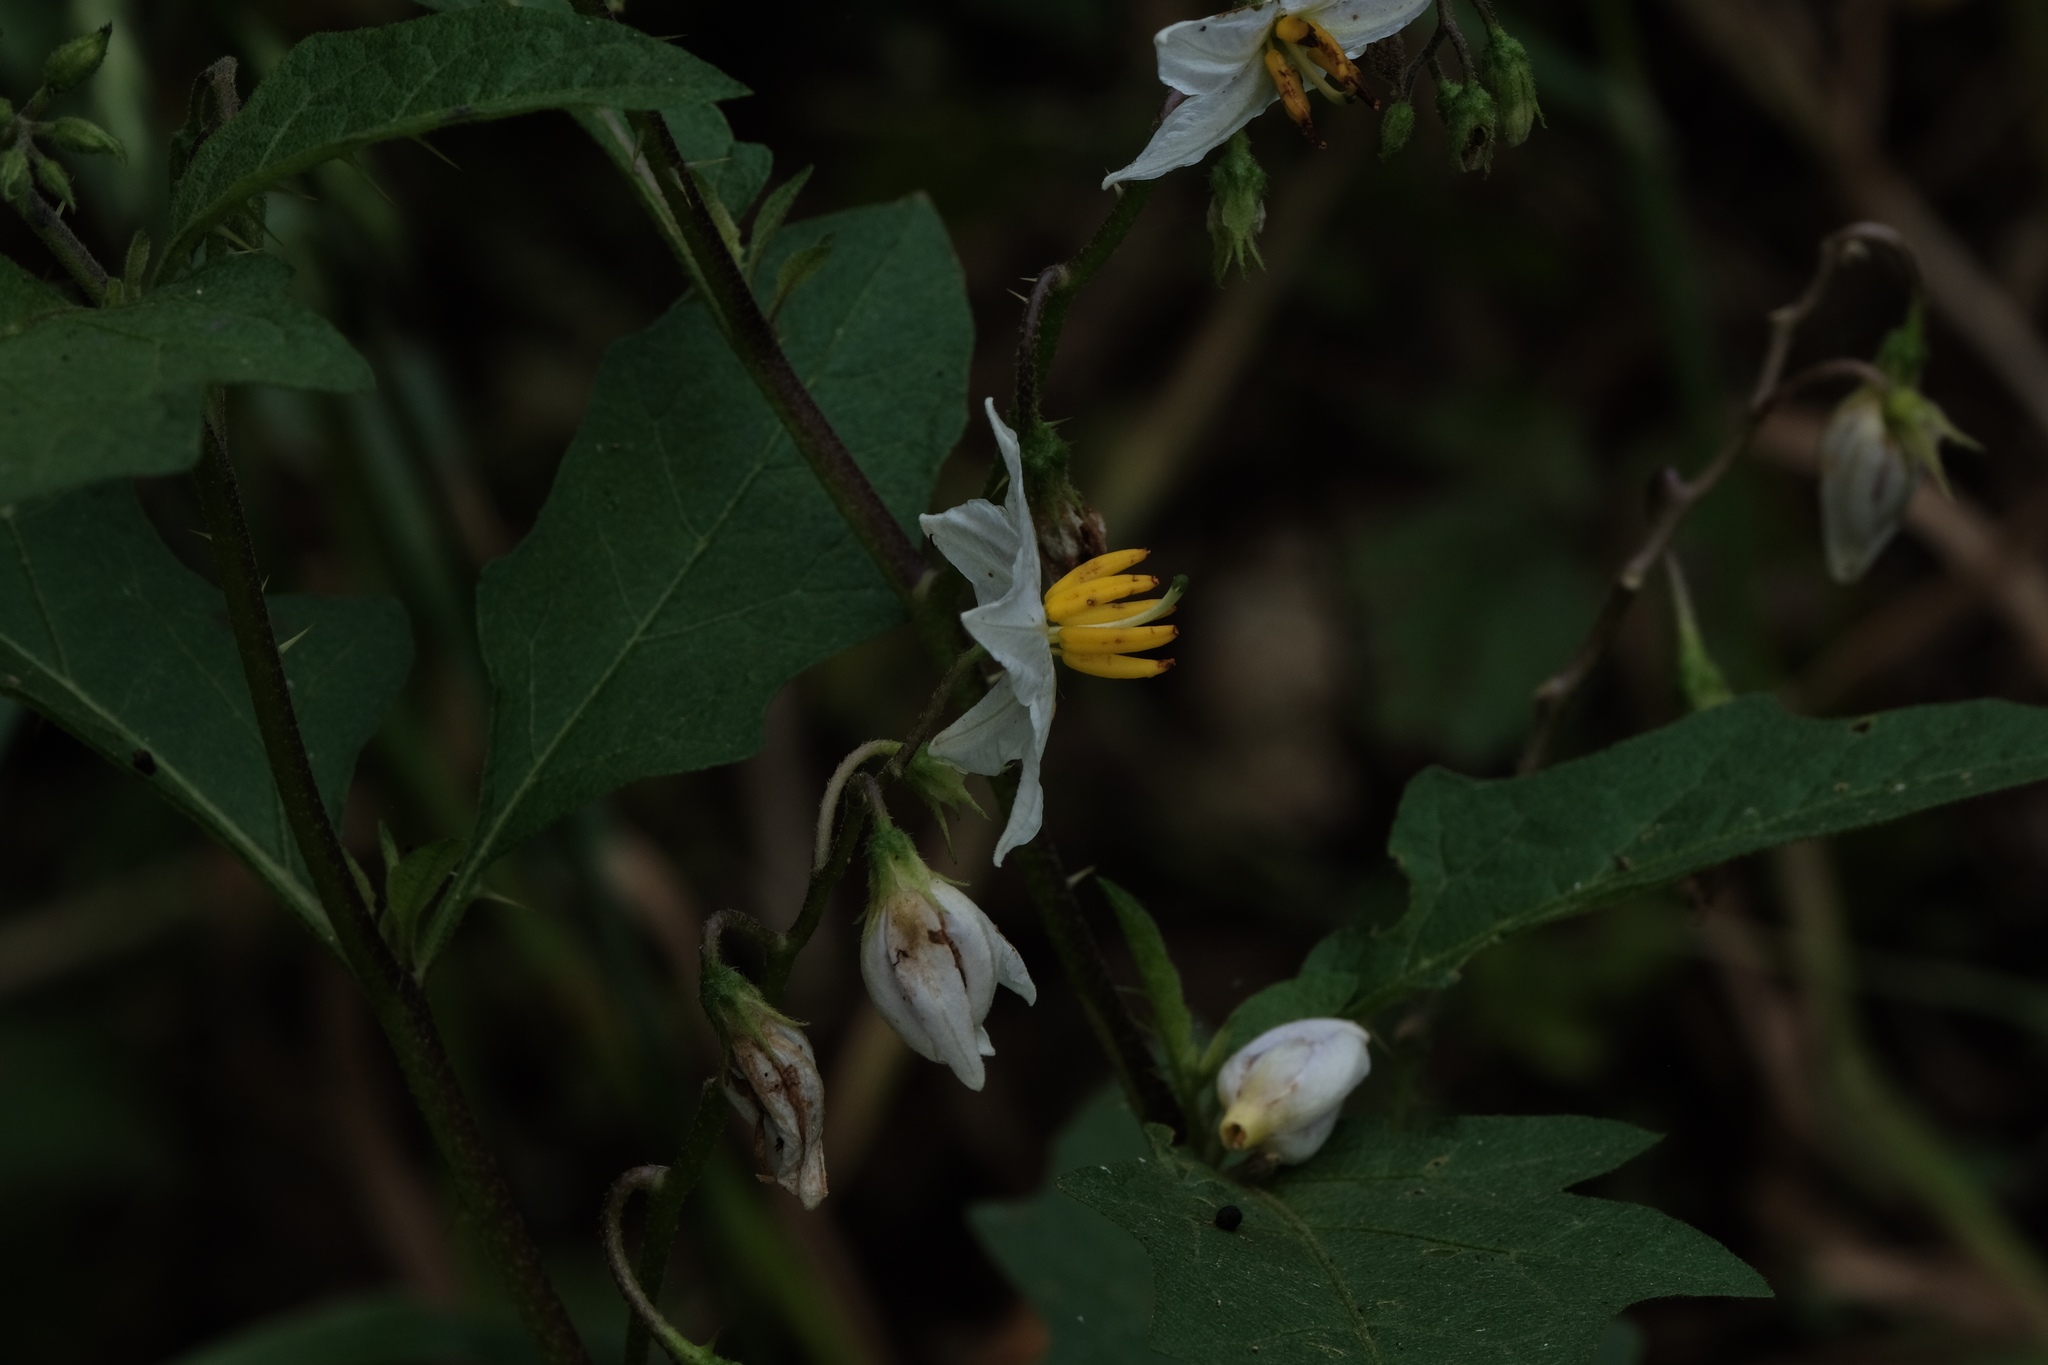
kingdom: Plantae
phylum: Tracheophyta
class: Magnoliopsida
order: Solanales
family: Solanaceae
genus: Solanum
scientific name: Solanum carolinense
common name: Horse-nettle
